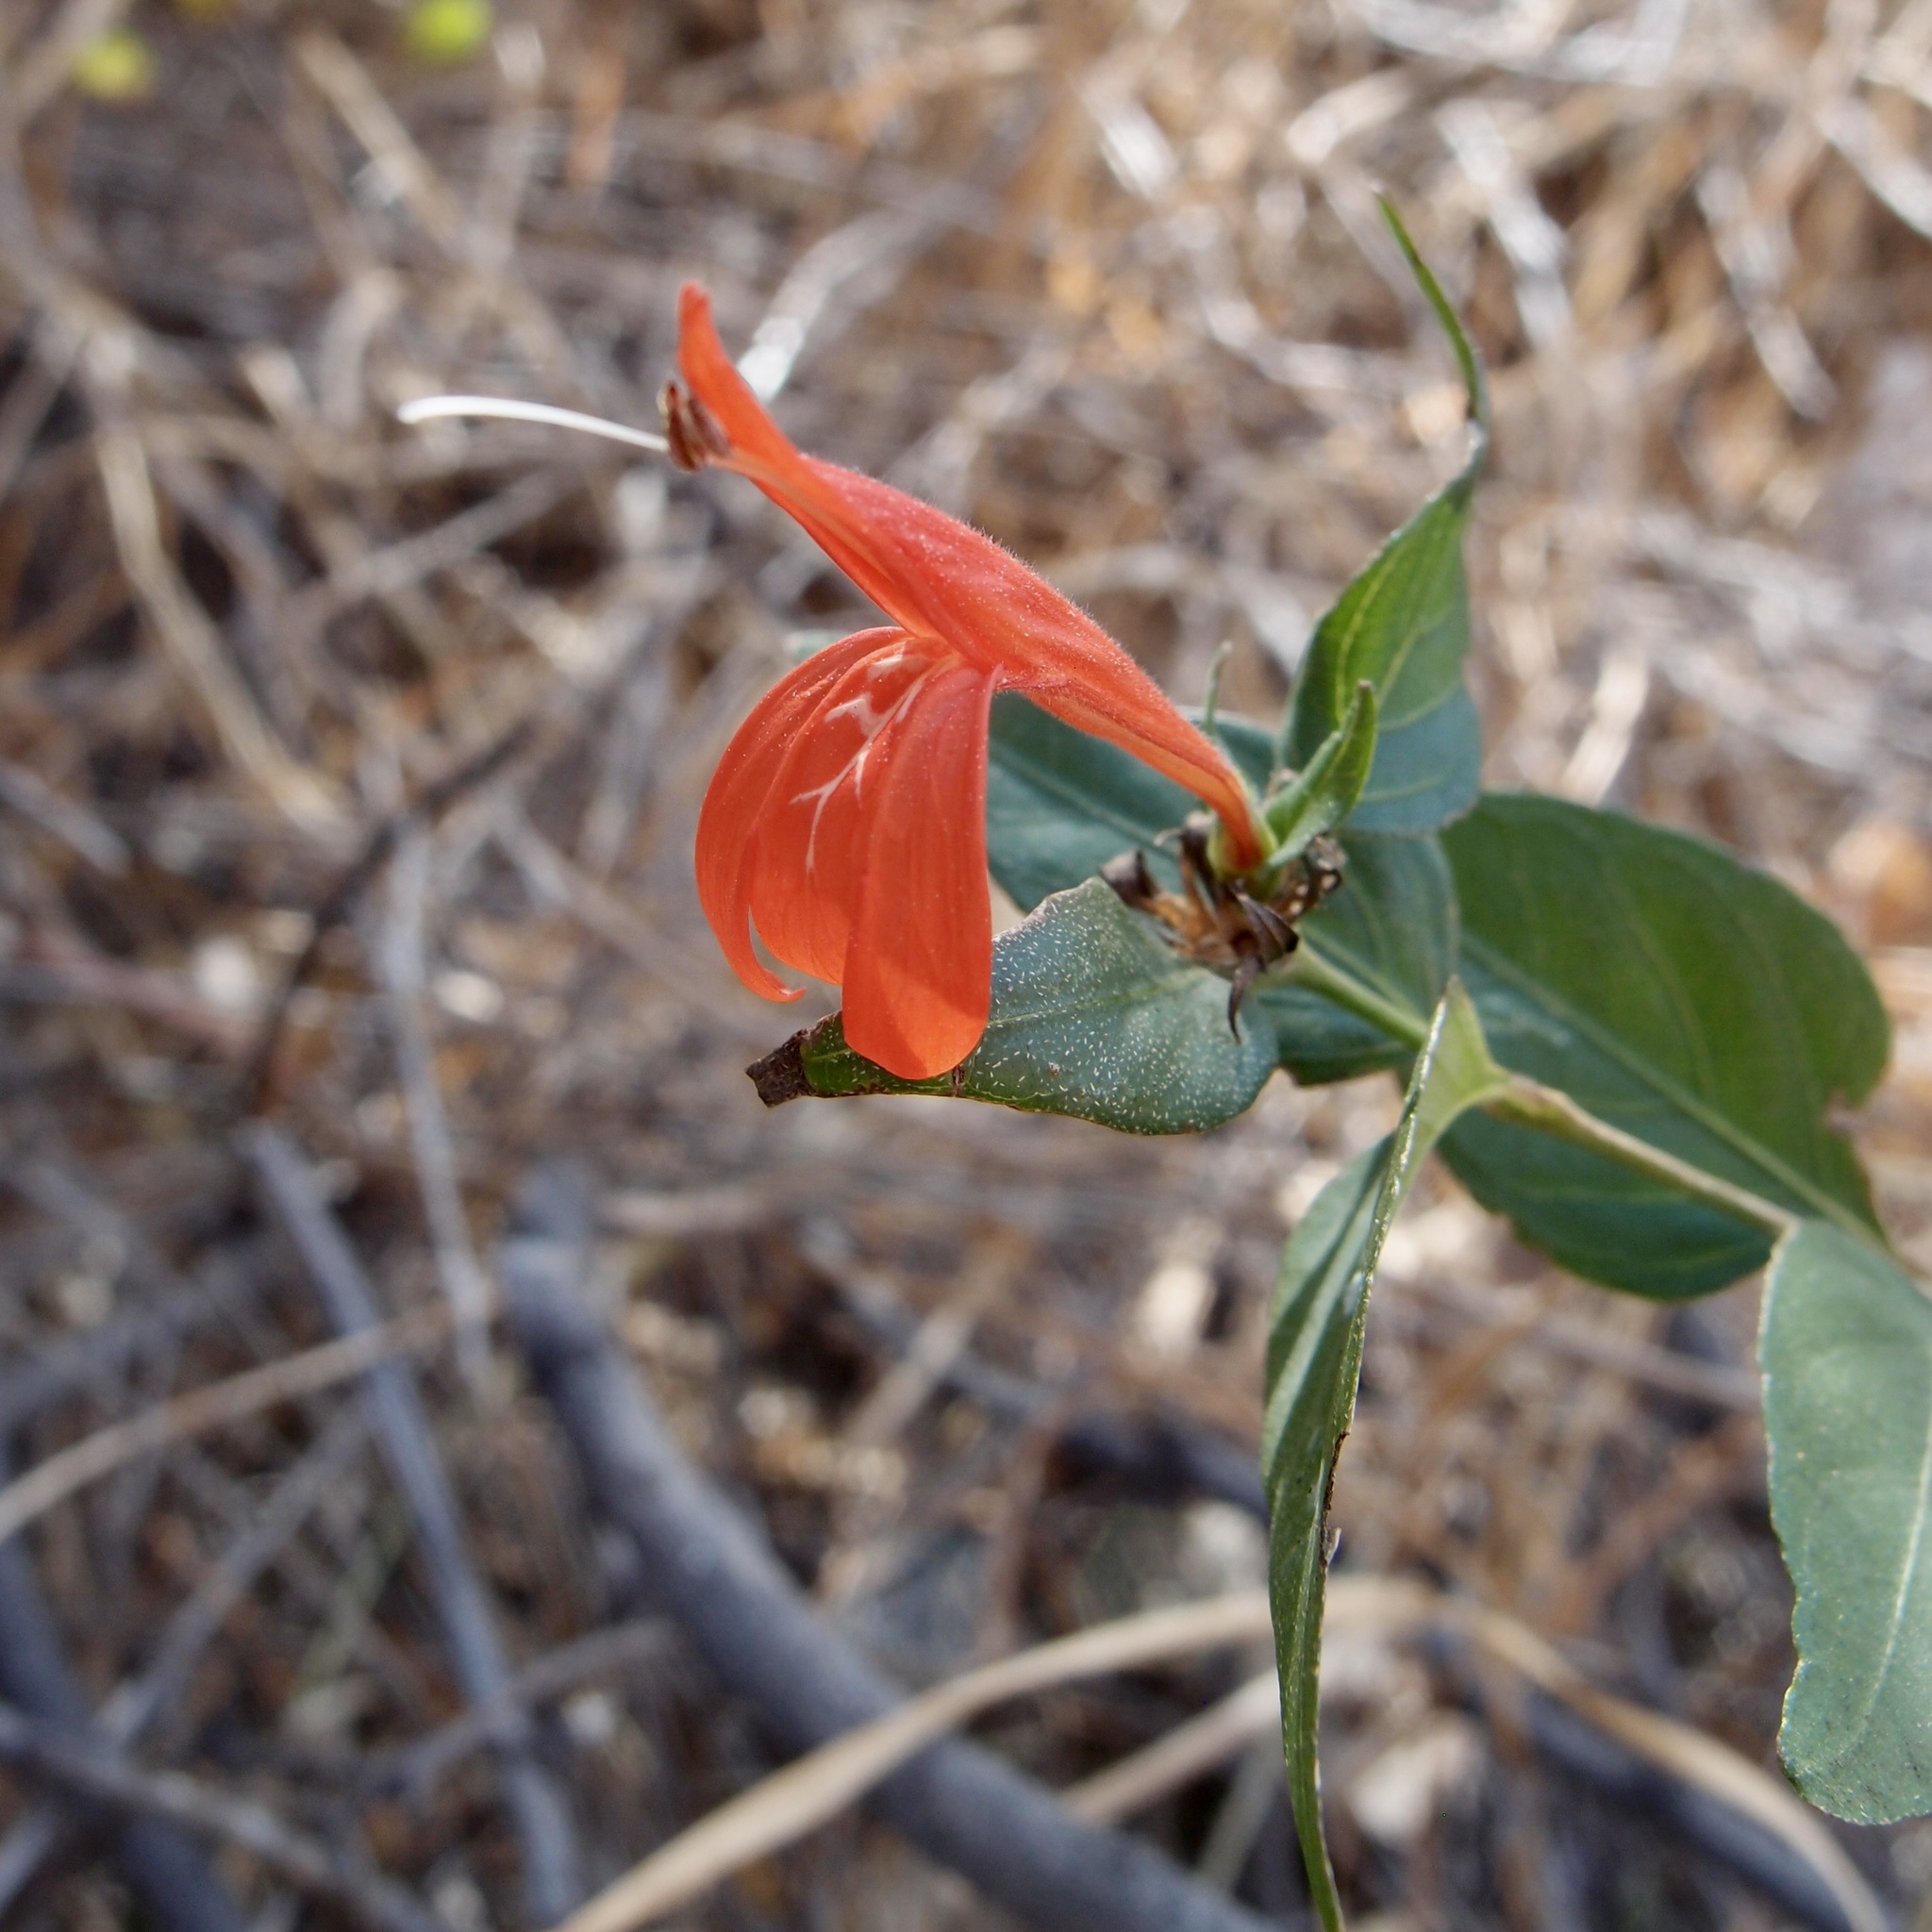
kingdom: Plantae
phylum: Tracheophyta
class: Magnoliopsida
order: Lamiales
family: Acanthaceae
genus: Dianthera
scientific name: Dianthera candicans
